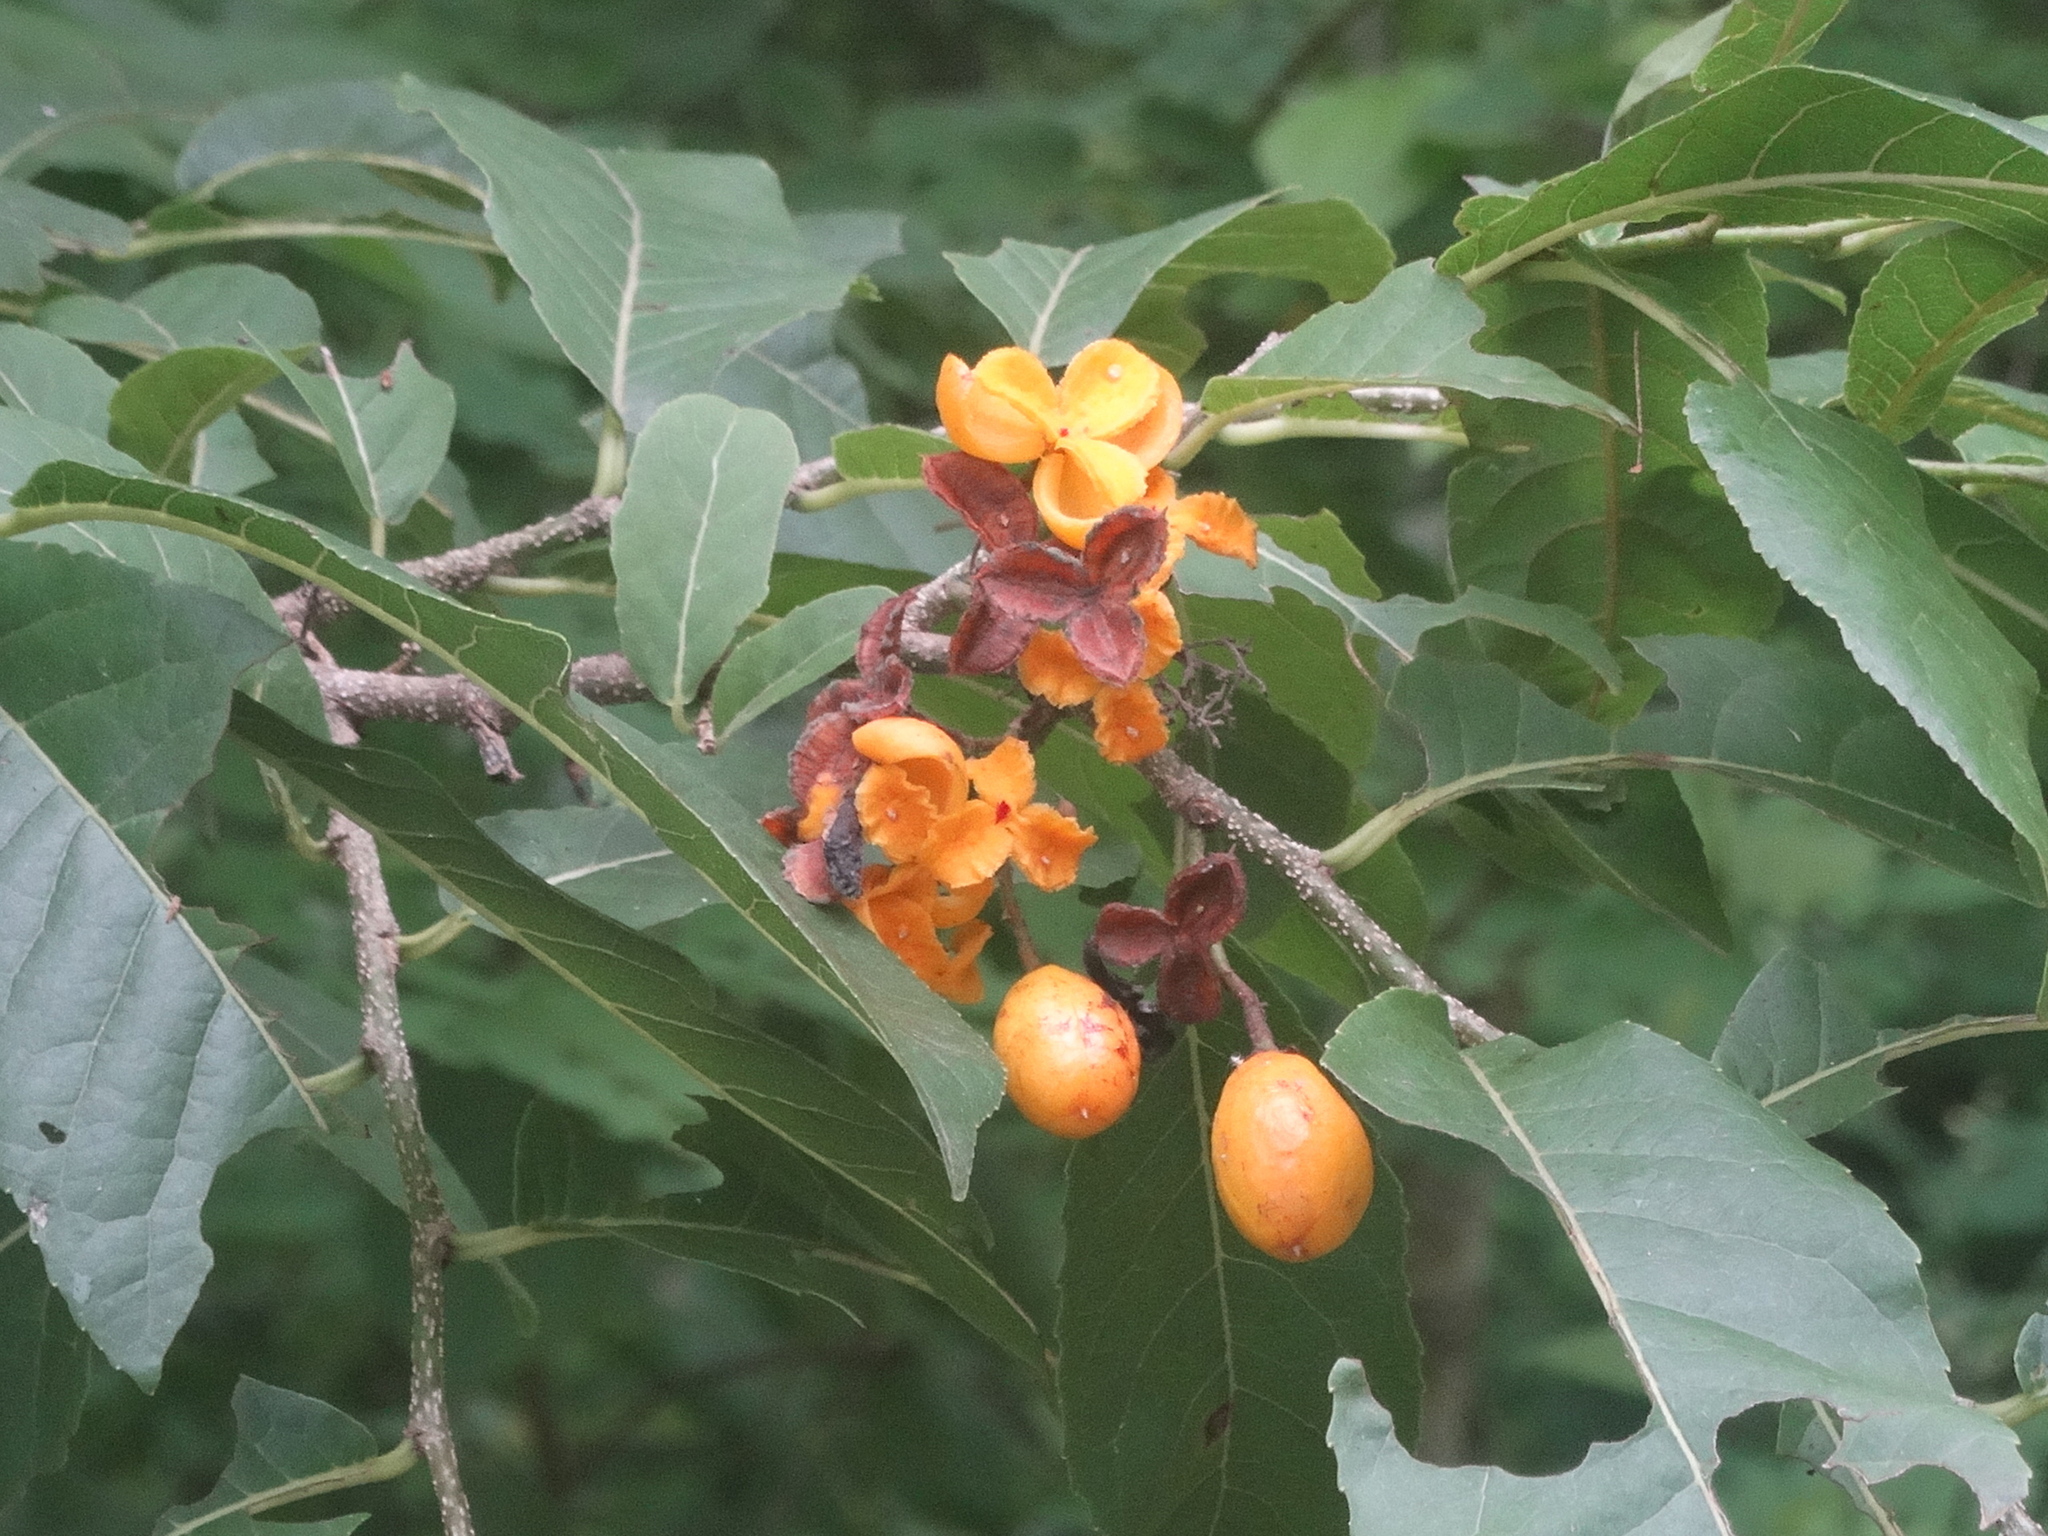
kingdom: Plantae
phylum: Tracheophyta
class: Magnoliopsida
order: Malpighiales
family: Salicaceae
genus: Casearia
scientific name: Casearia corymbosa
